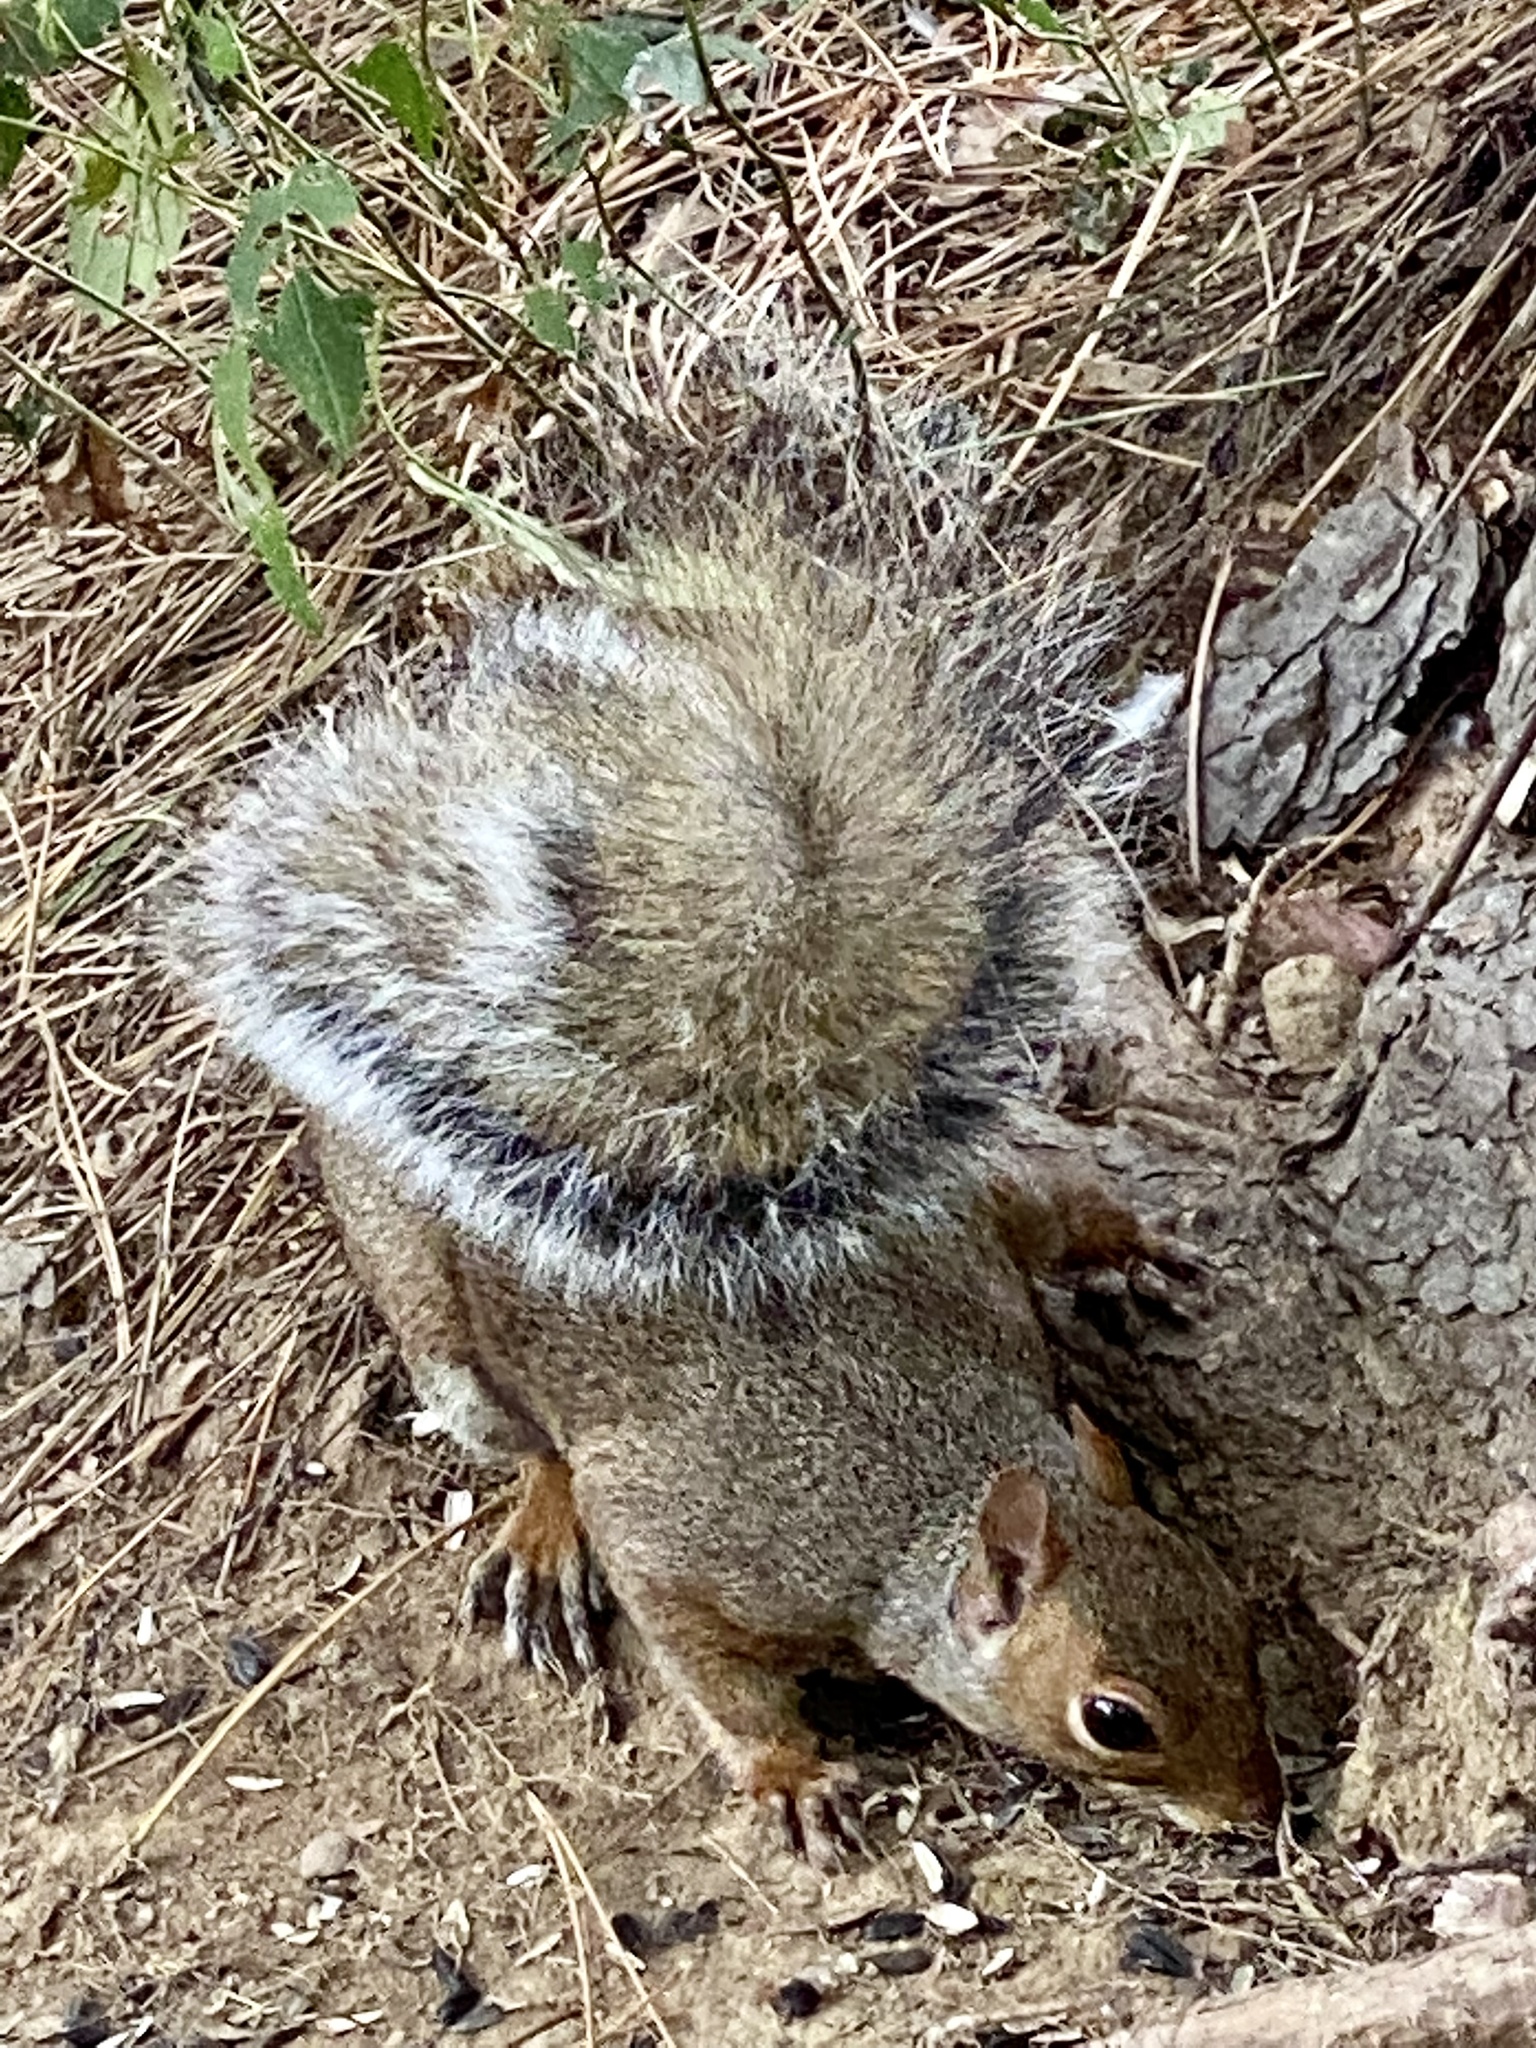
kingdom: Animalia
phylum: Chordata
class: Mammalia
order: Rodentia
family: Sciuridae
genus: Sciurus
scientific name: Sciurus carolinensis
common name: Eastern gray squirrel
